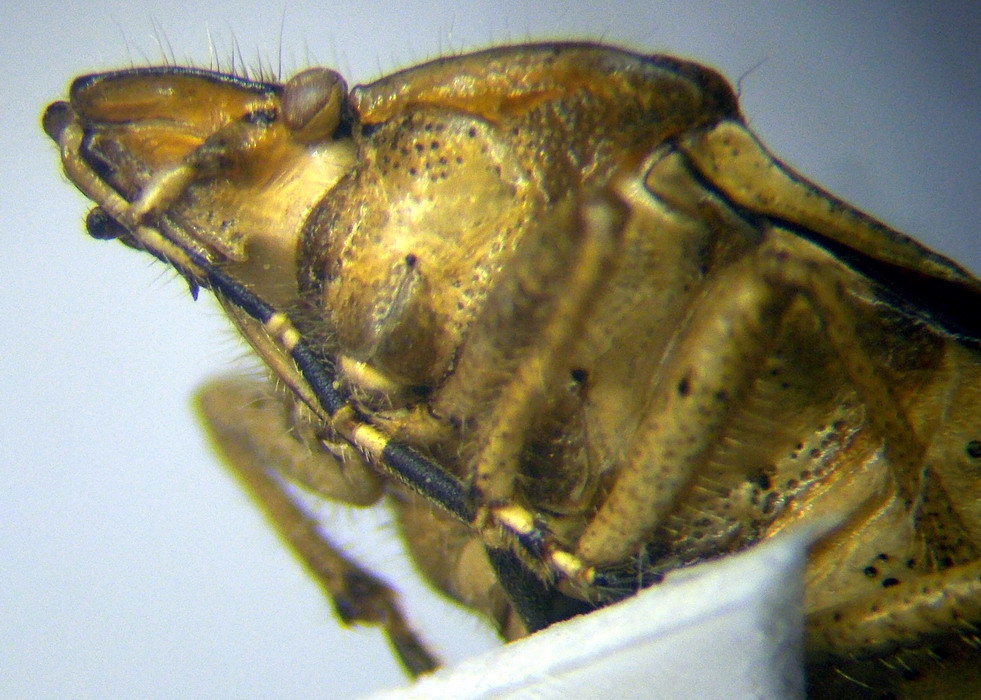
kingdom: Animalia
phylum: Arthropoda
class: Insecta
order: Hemiptera
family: Pentatomidae
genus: Dolycoris
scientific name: Dolycoris baccarum
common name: Sloe bug
